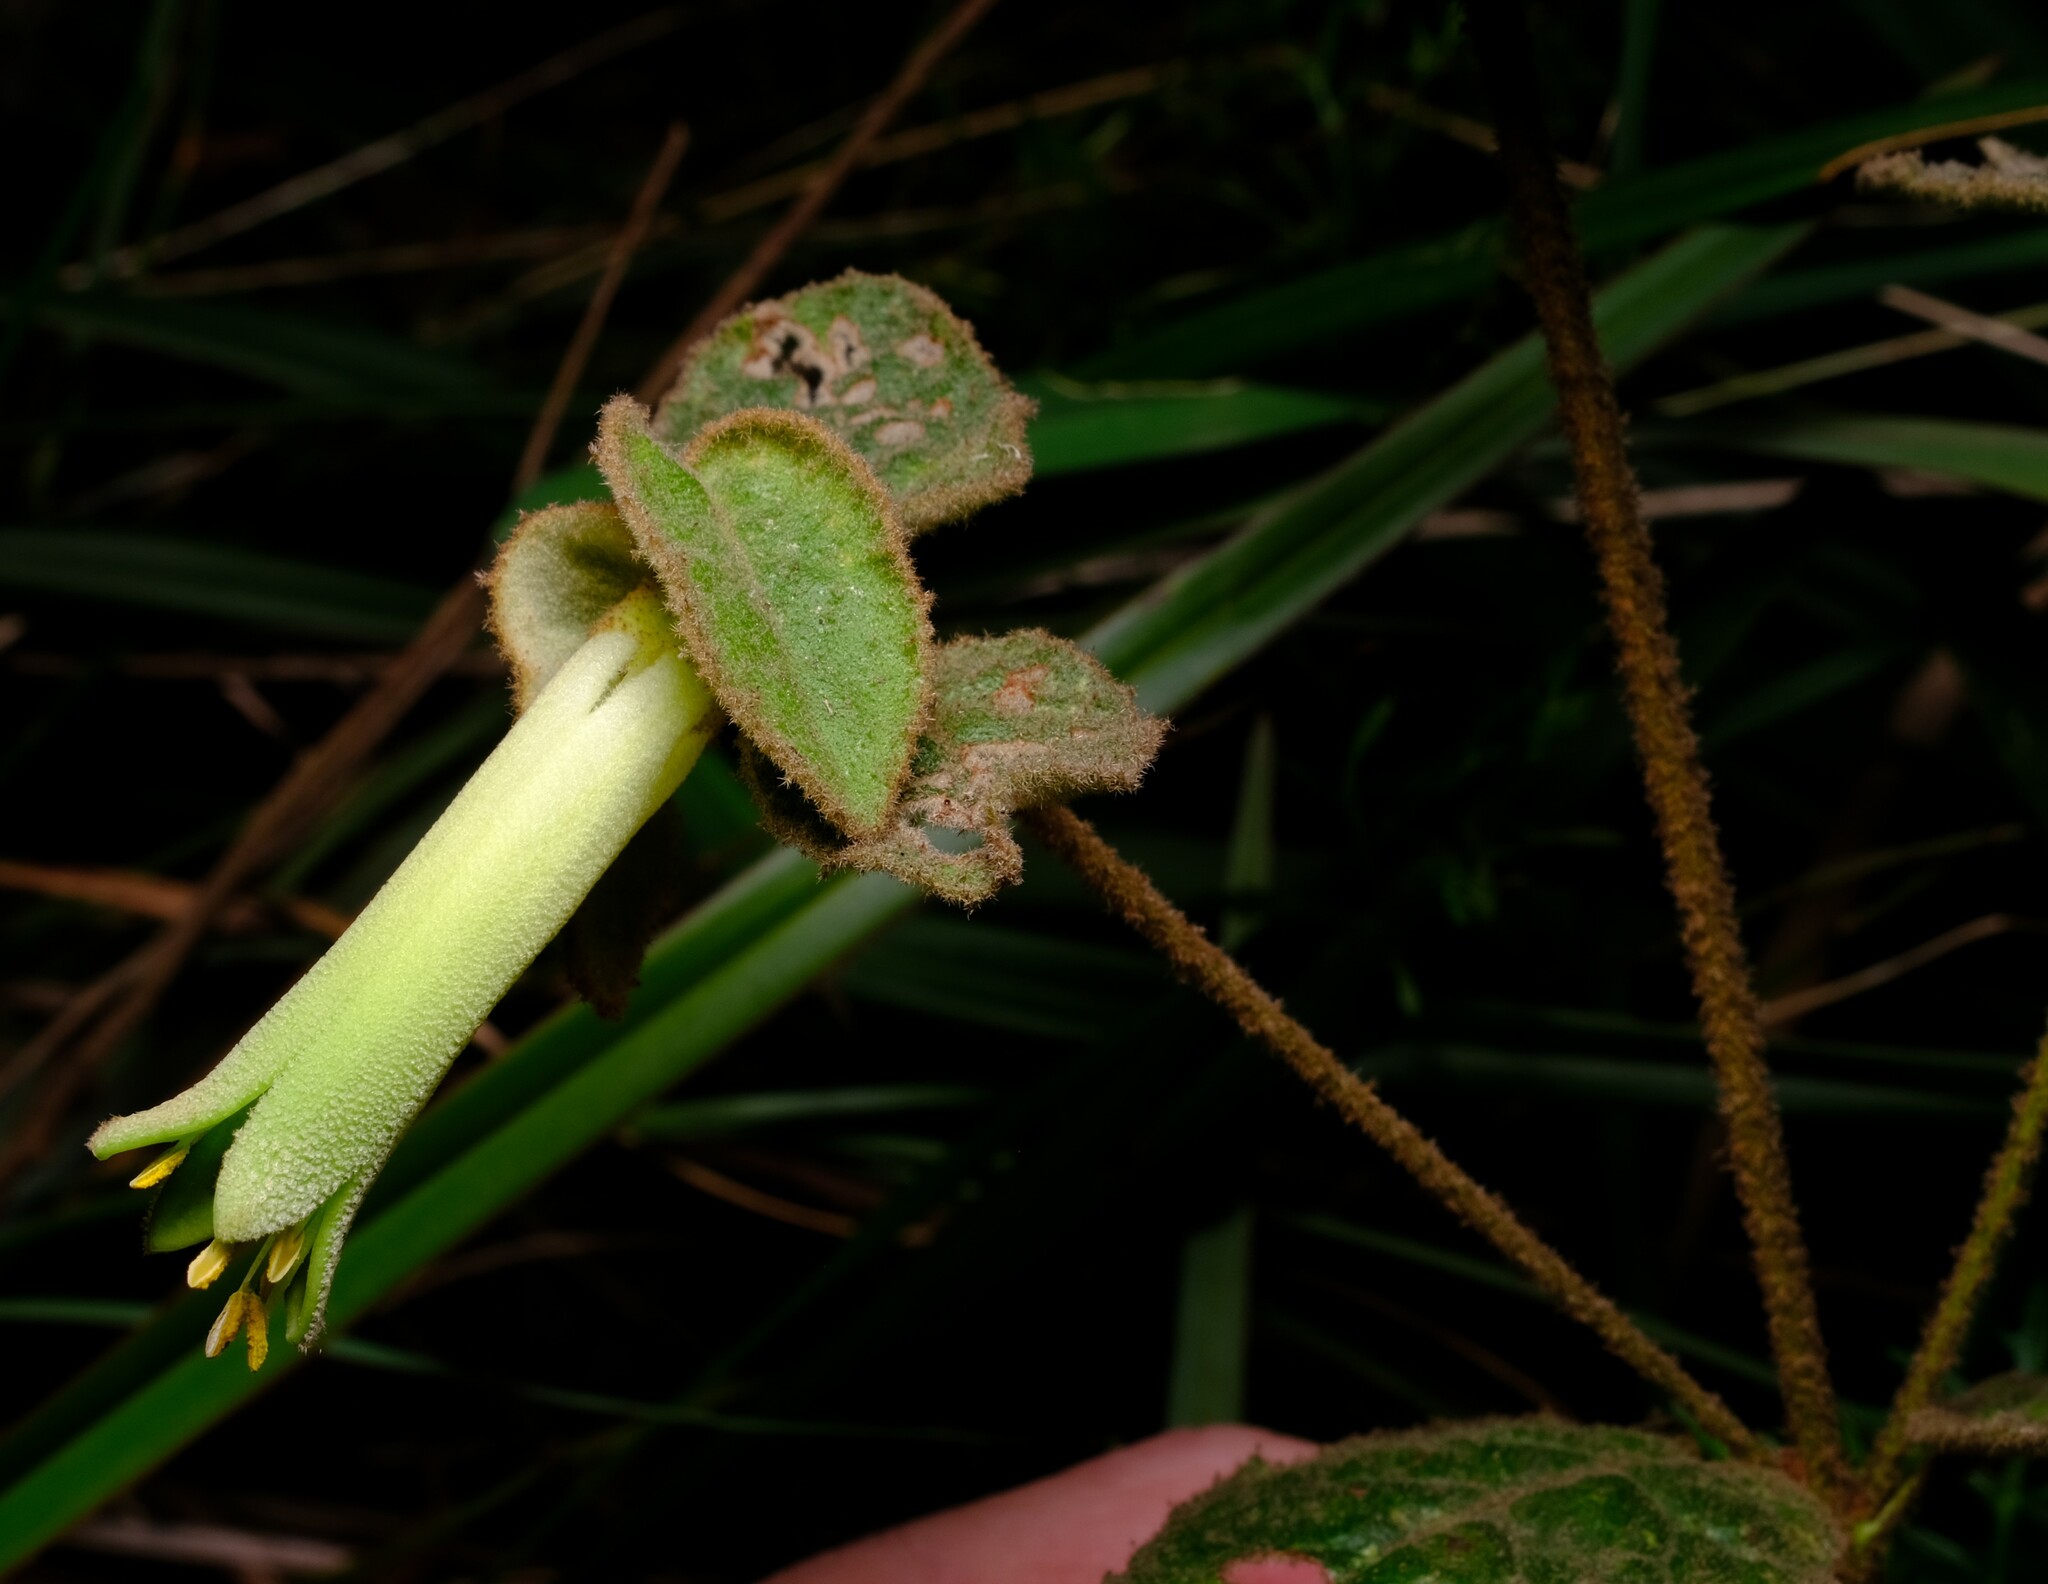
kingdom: Plantae
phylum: Tracheophyta
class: Magnoliopsida
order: Sapindales
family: Rutaceae
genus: Correa
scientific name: Correa reflexa
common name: Common correa
